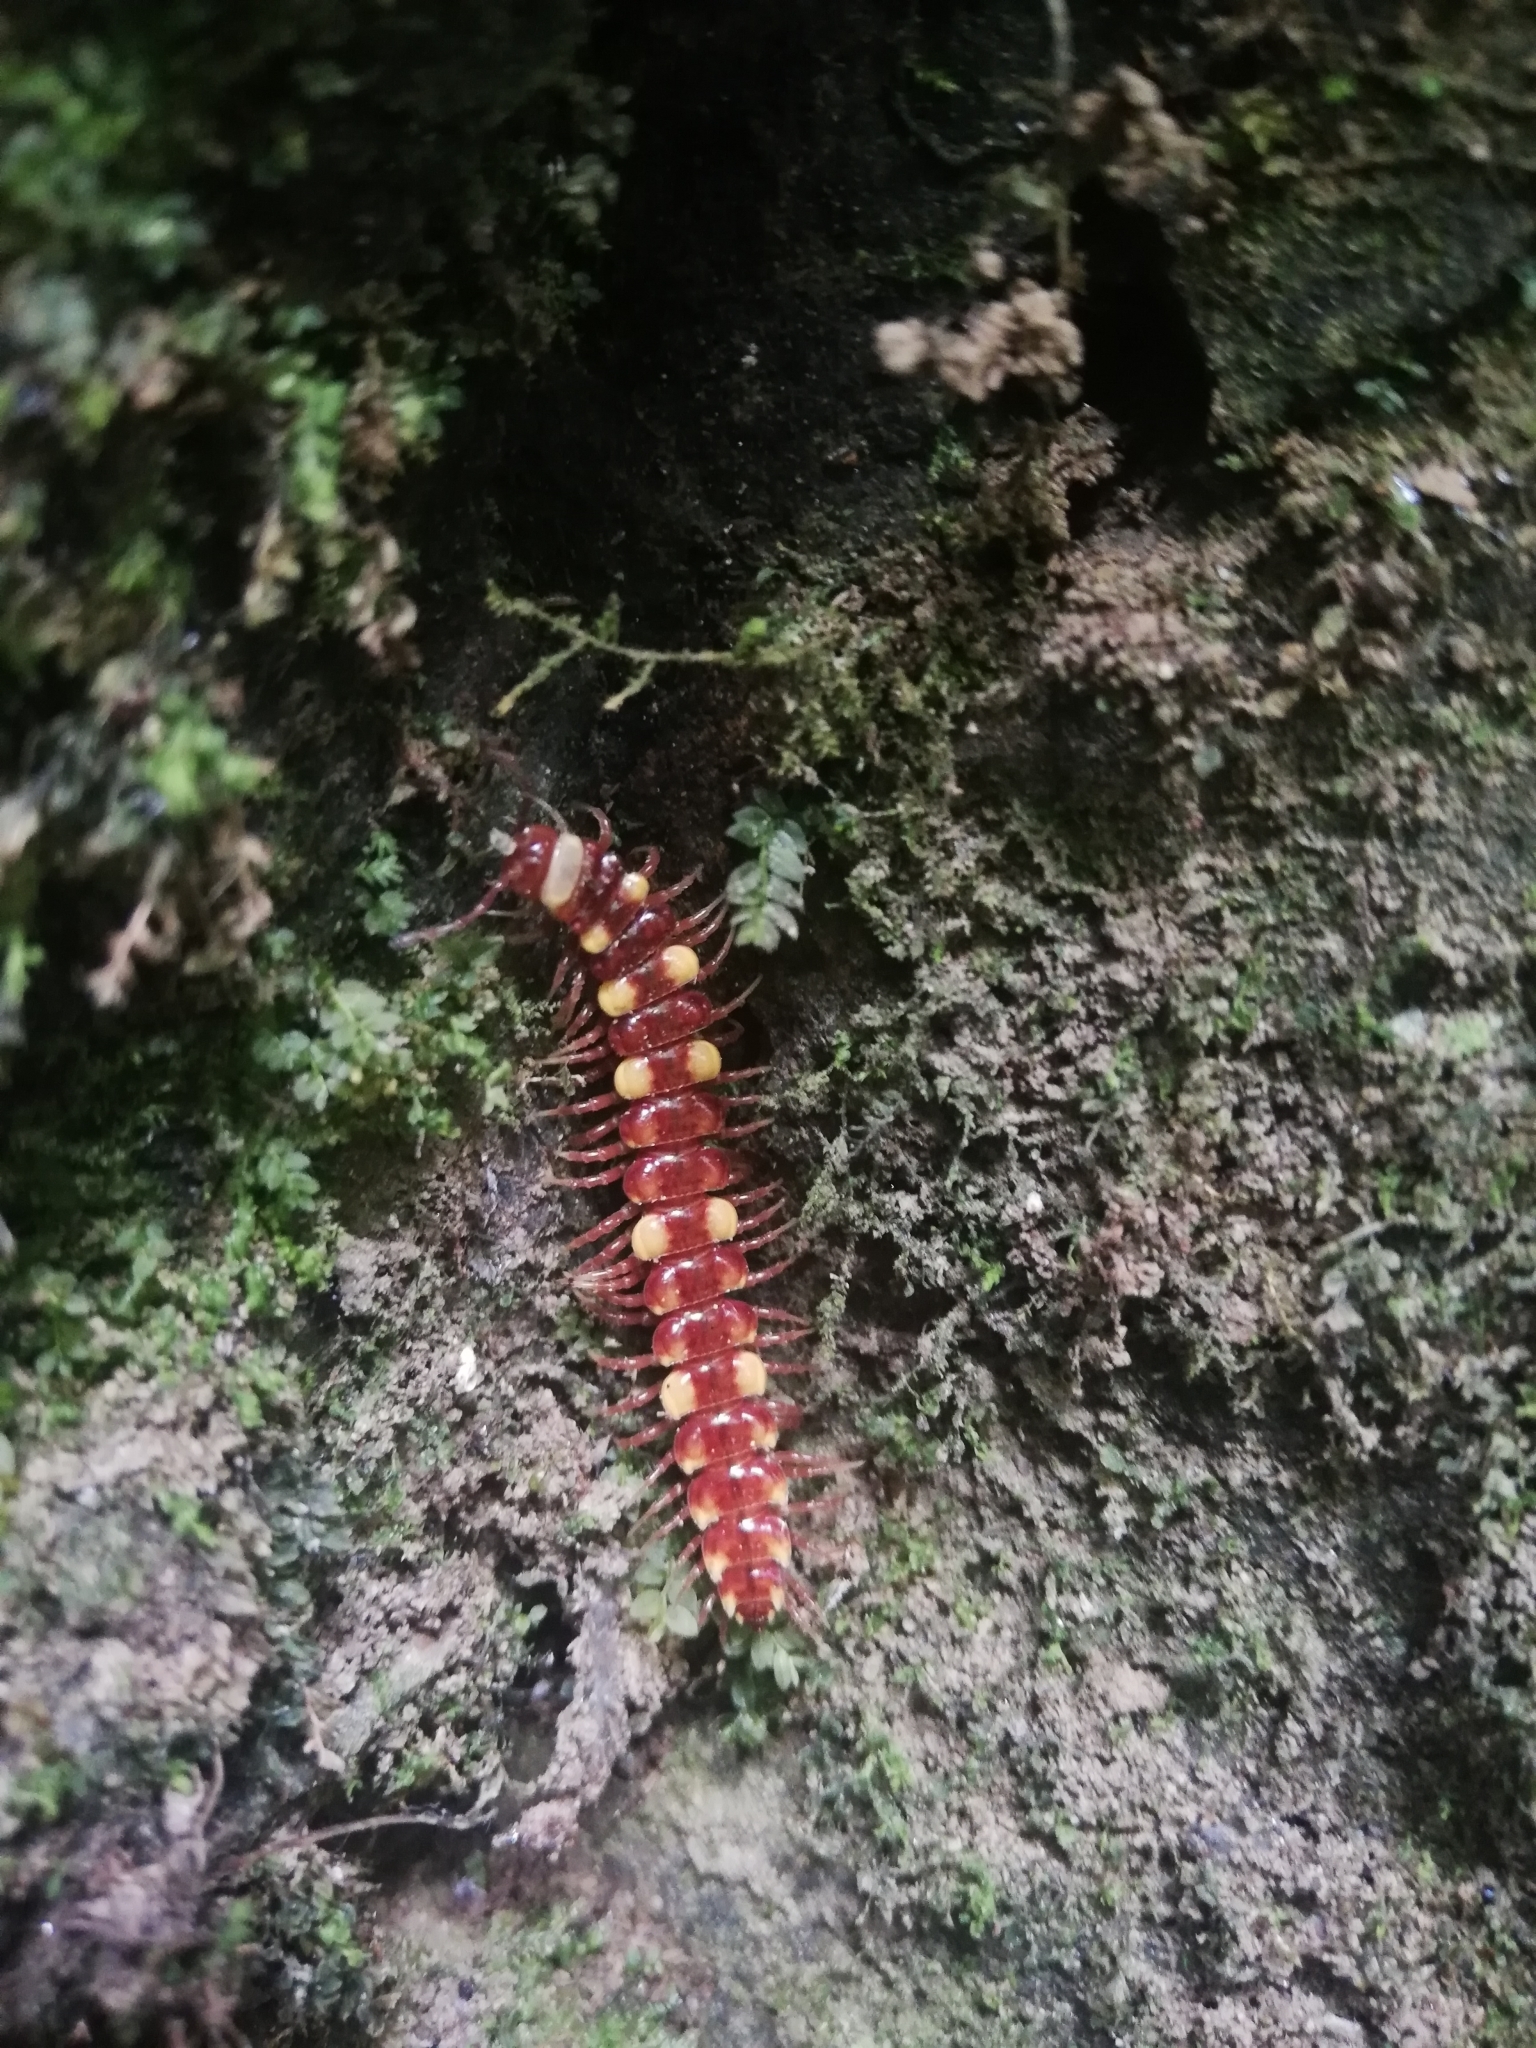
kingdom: Animalia
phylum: Arthropoda
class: Diplopoda
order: Polydesmida
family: Polydesmidae
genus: Polydesmus
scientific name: Polydesmus collaris
